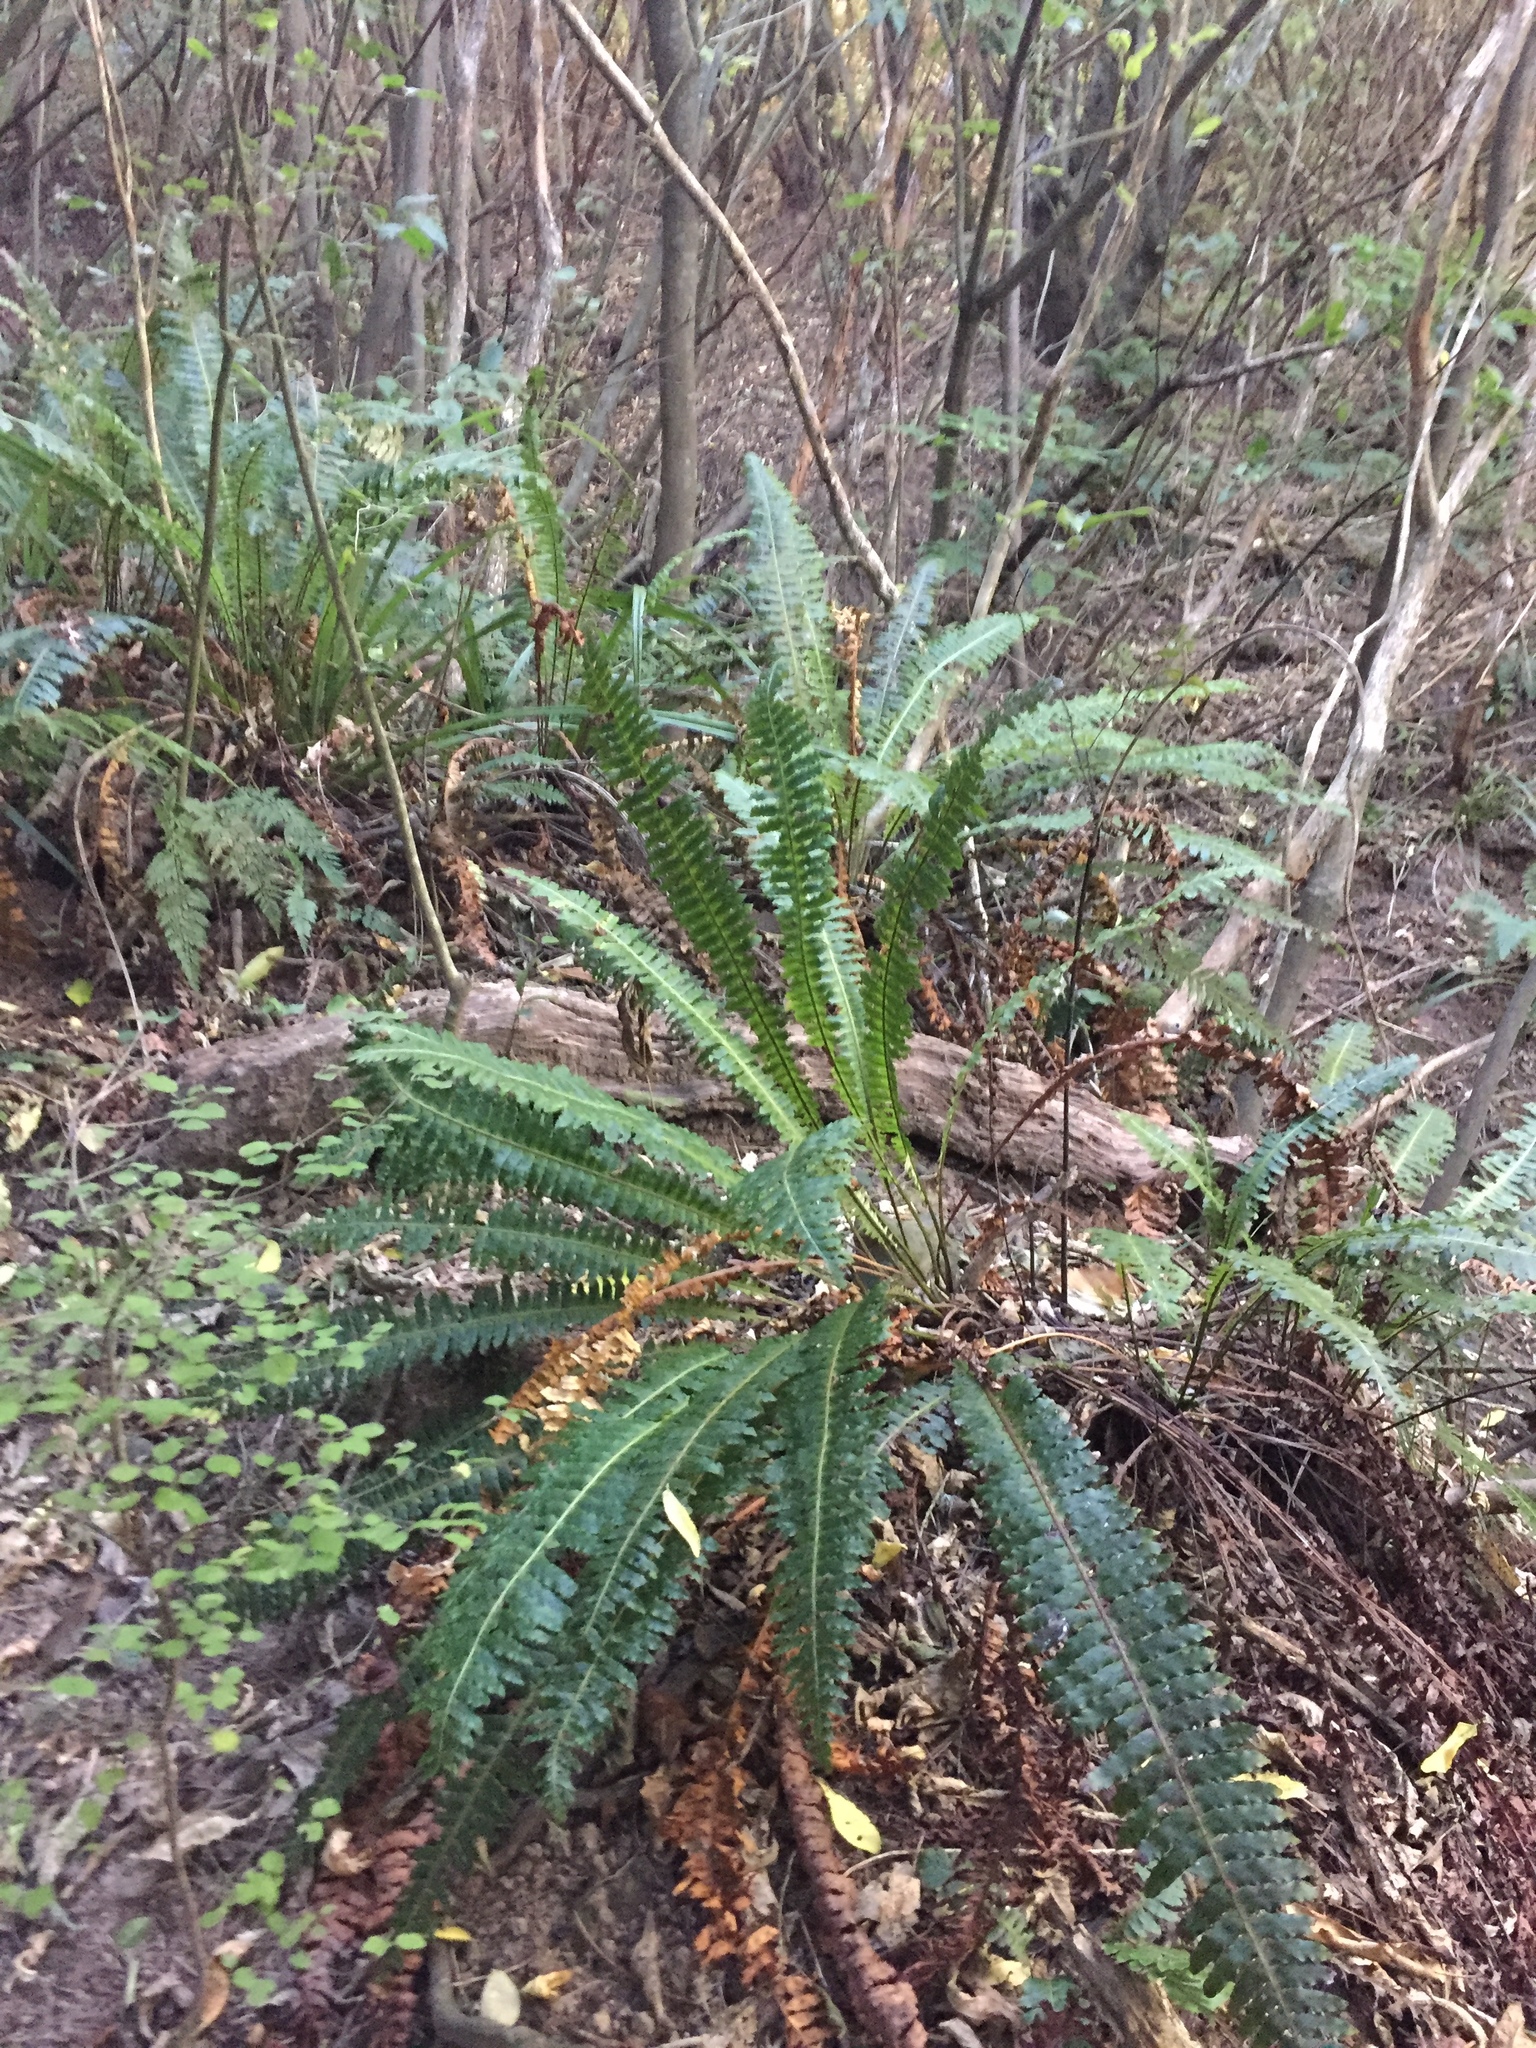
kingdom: Plantae
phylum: Tracheophyta
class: Polypodiopsida
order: Polypodiales
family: Blechnaceae
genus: Lomaria
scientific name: Lomaria discolor
